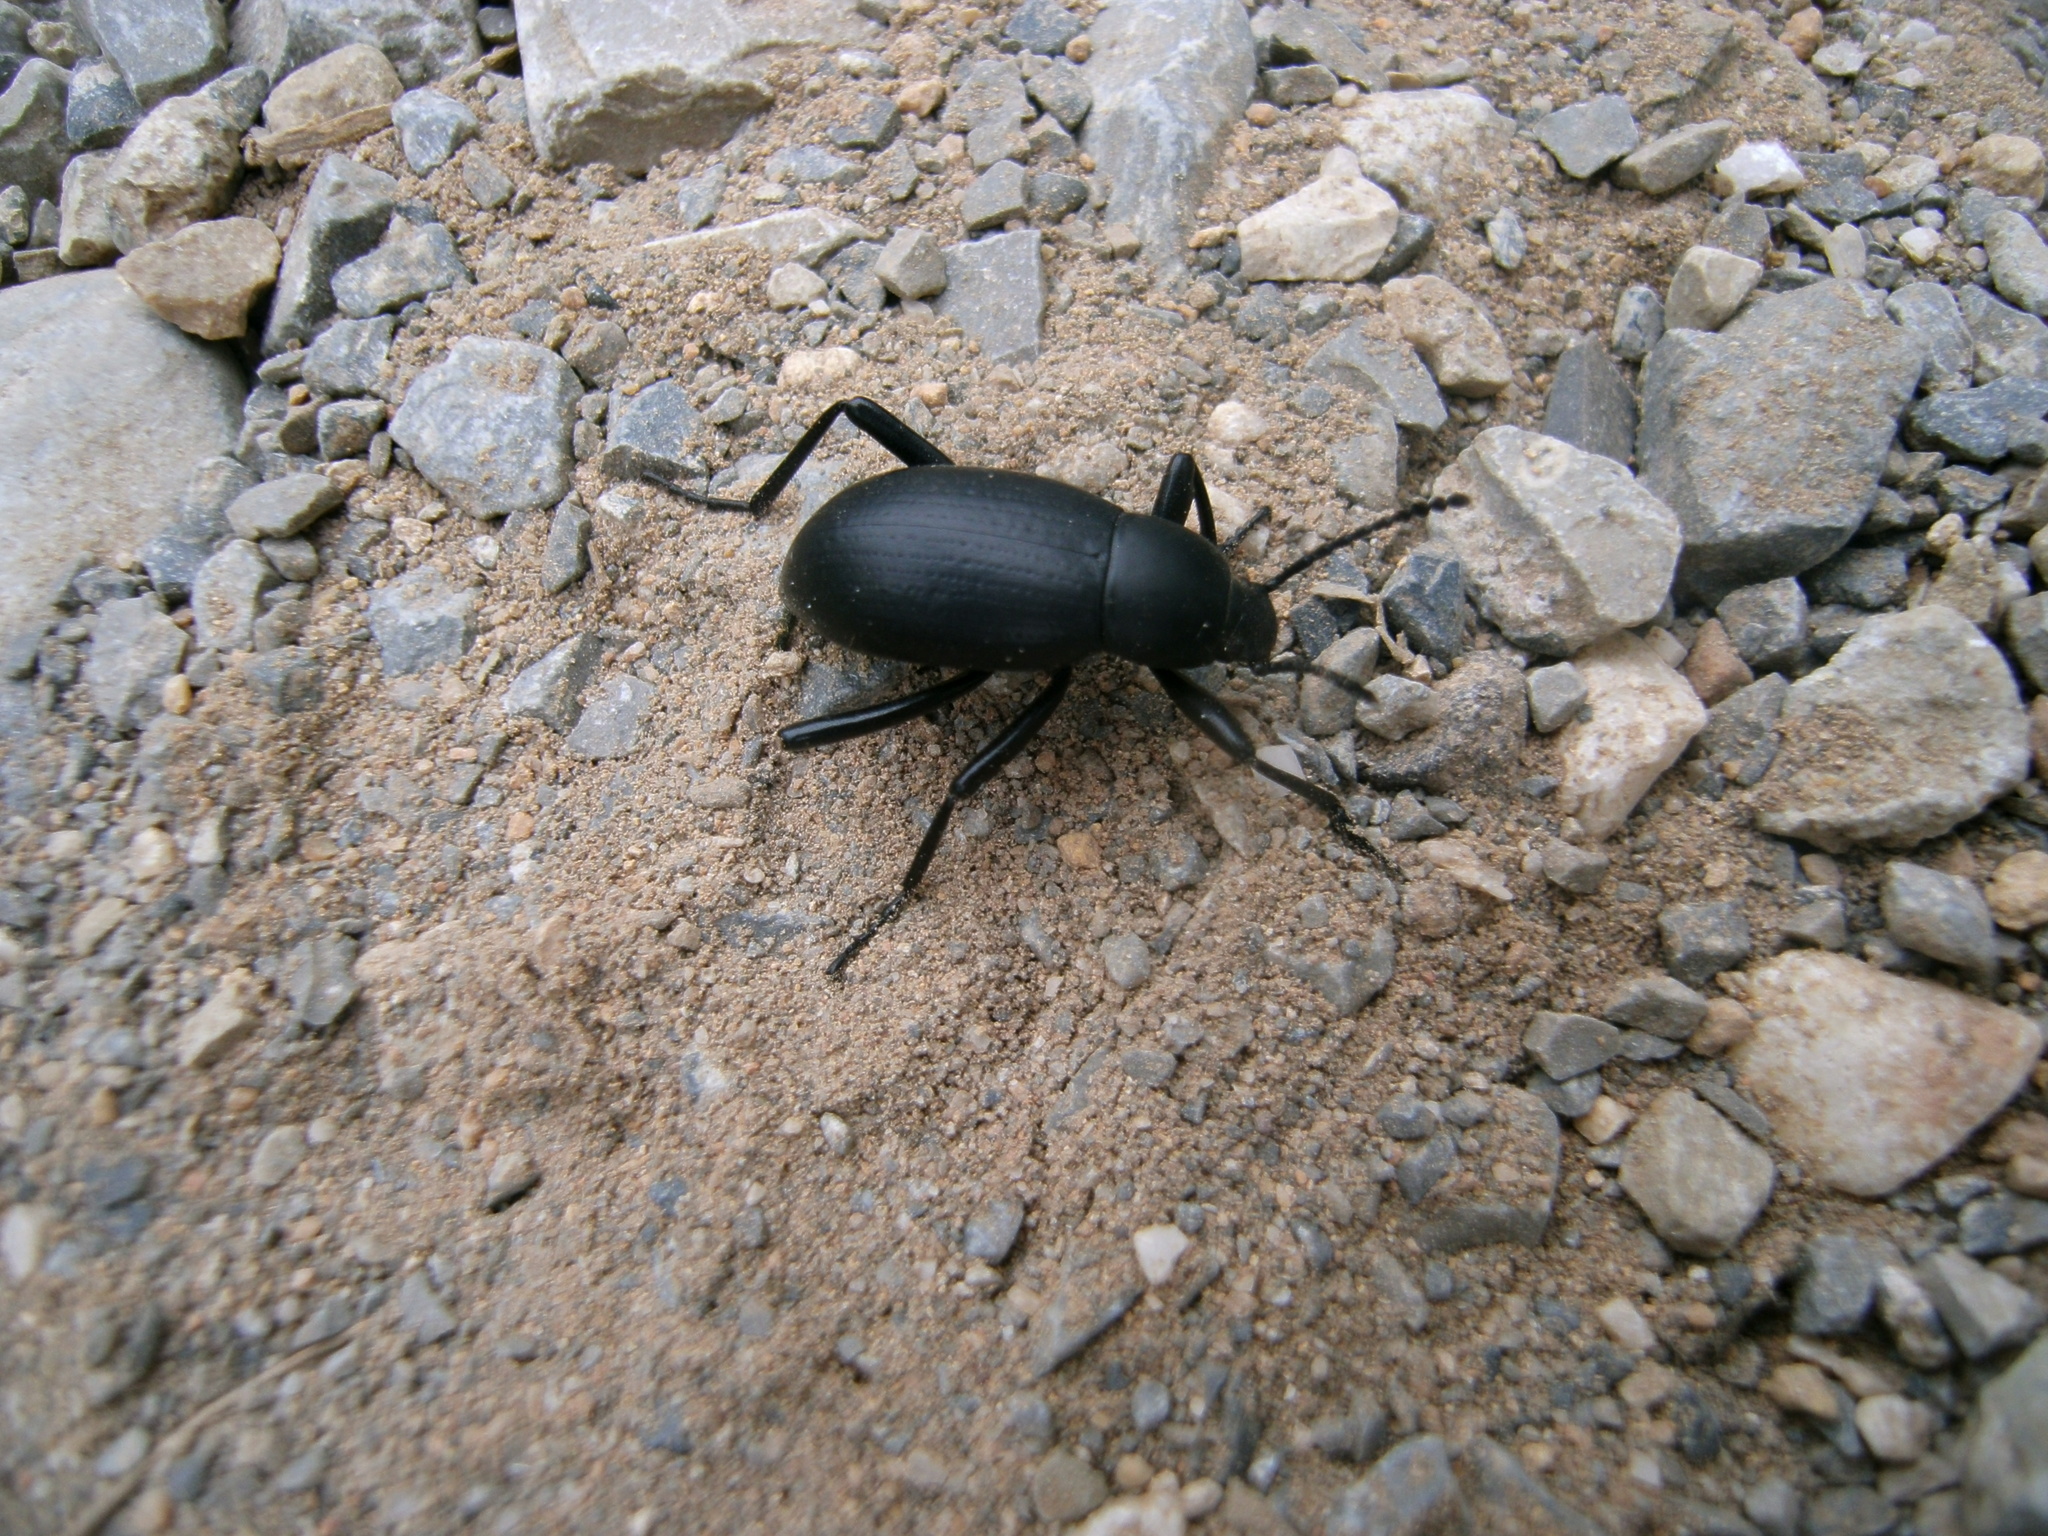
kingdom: Animalia
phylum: Arthropoda
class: Insecta
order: Coleoptera
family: Tenebrionidae
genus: Eleodes
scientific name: Eleodes goryi
